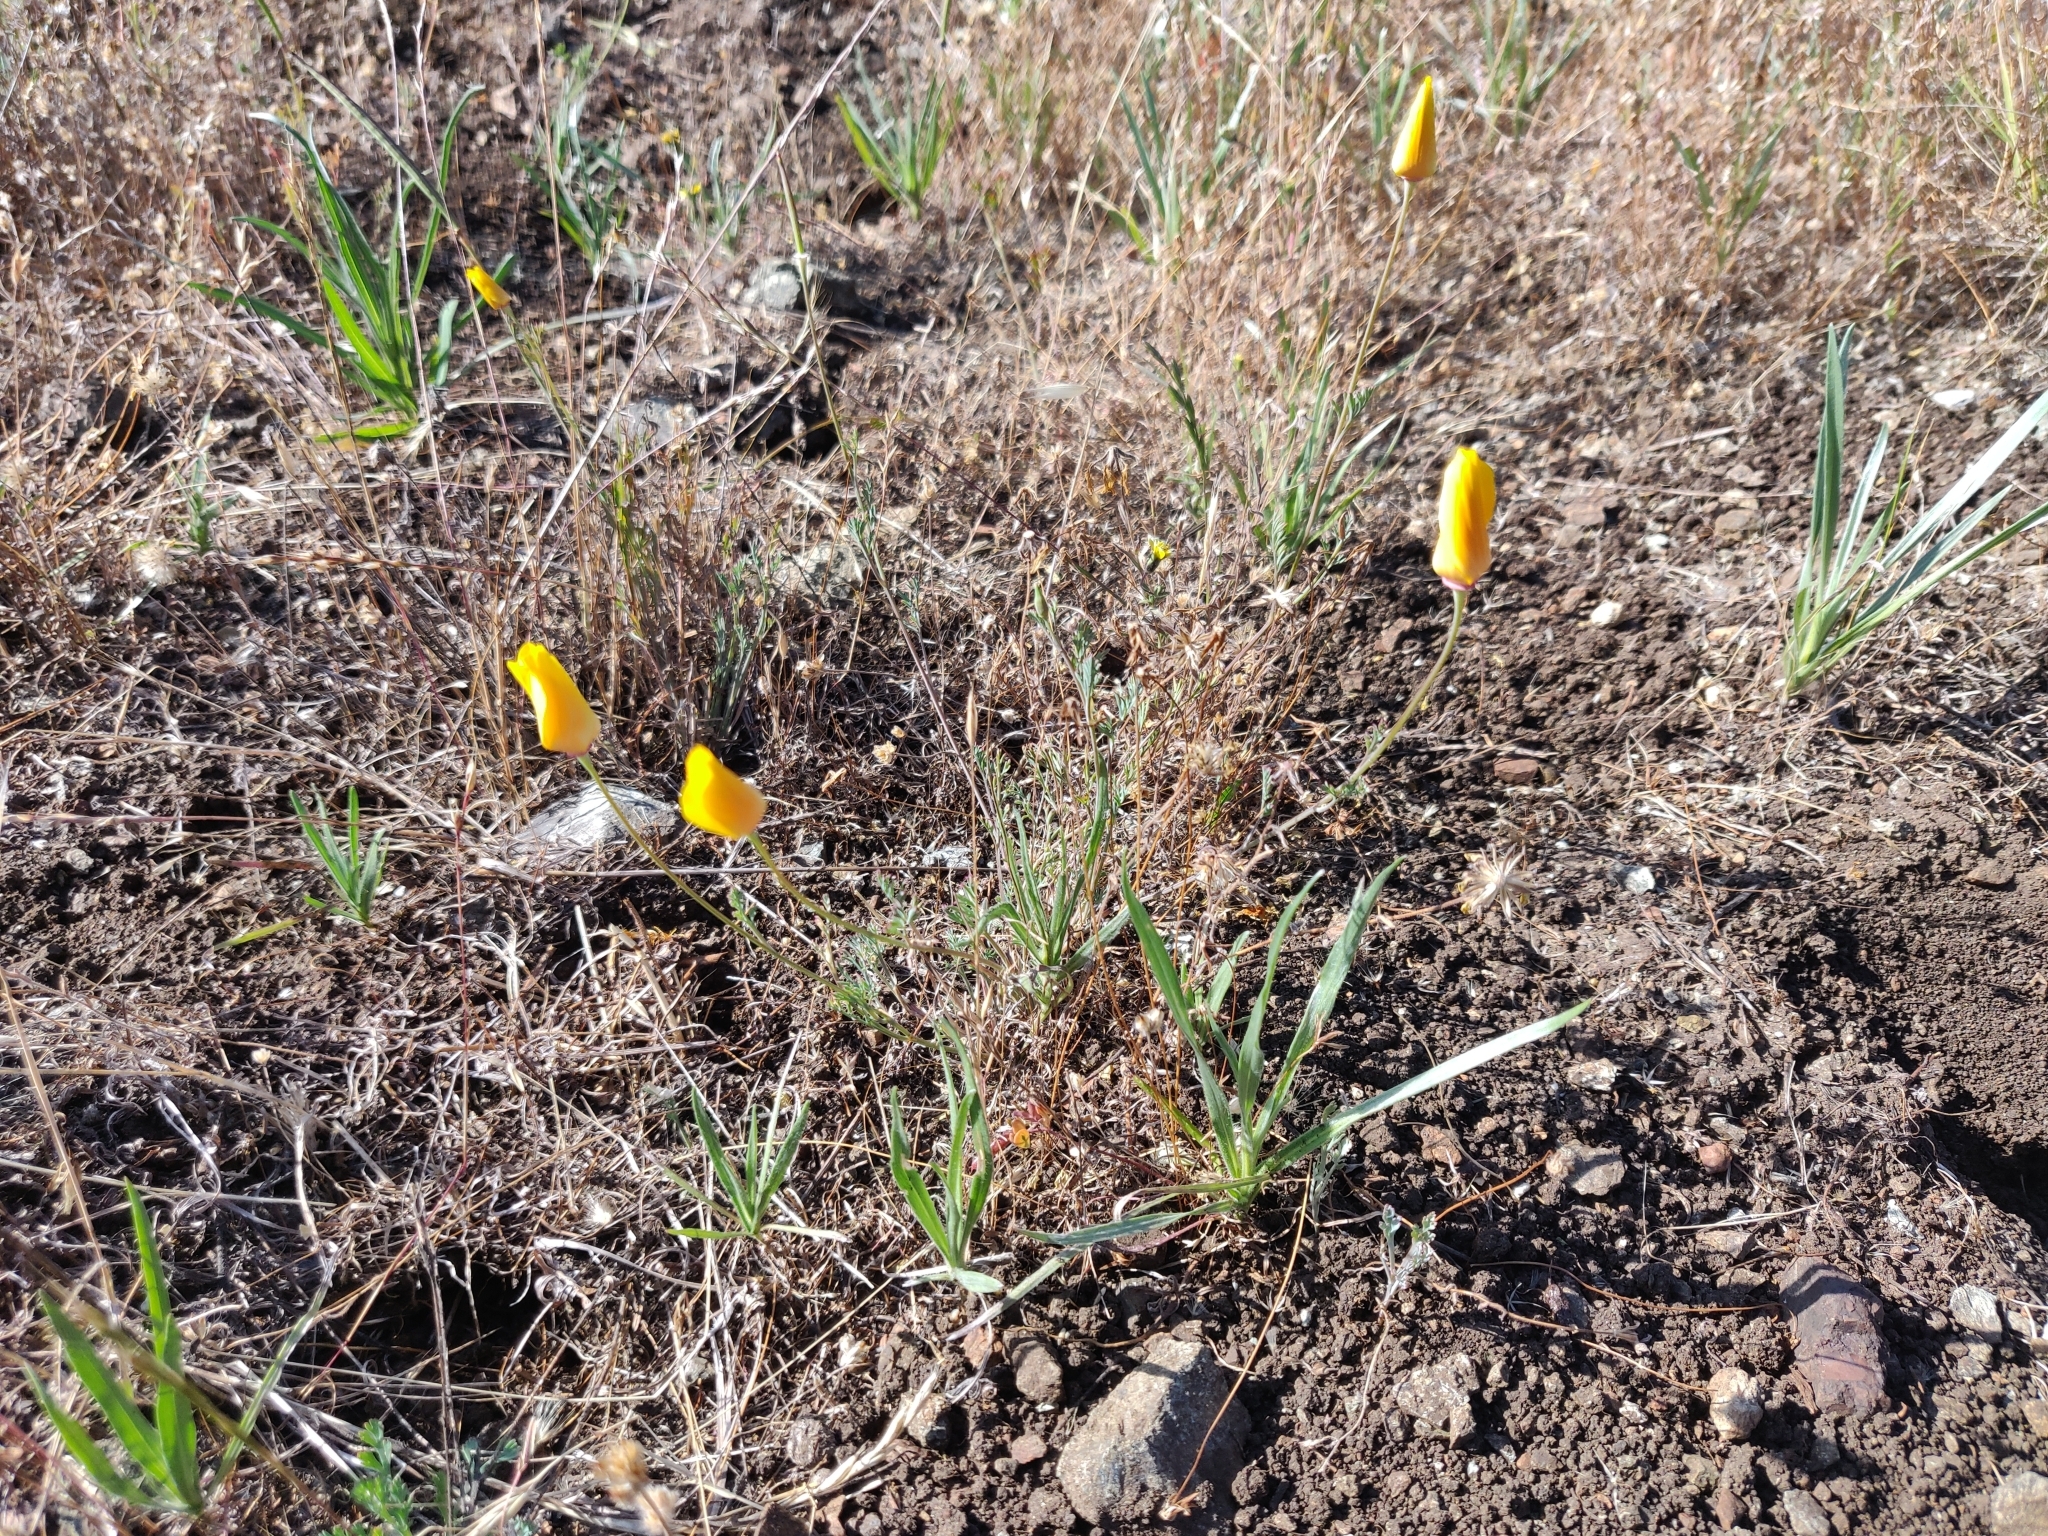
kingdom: Plantae
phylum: Tracheophyta
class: Magnoliopsida
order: Ranunculales
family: Papaveraceae
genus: Eschscholzia
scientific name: Eschscholzia californica
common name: California poppy
